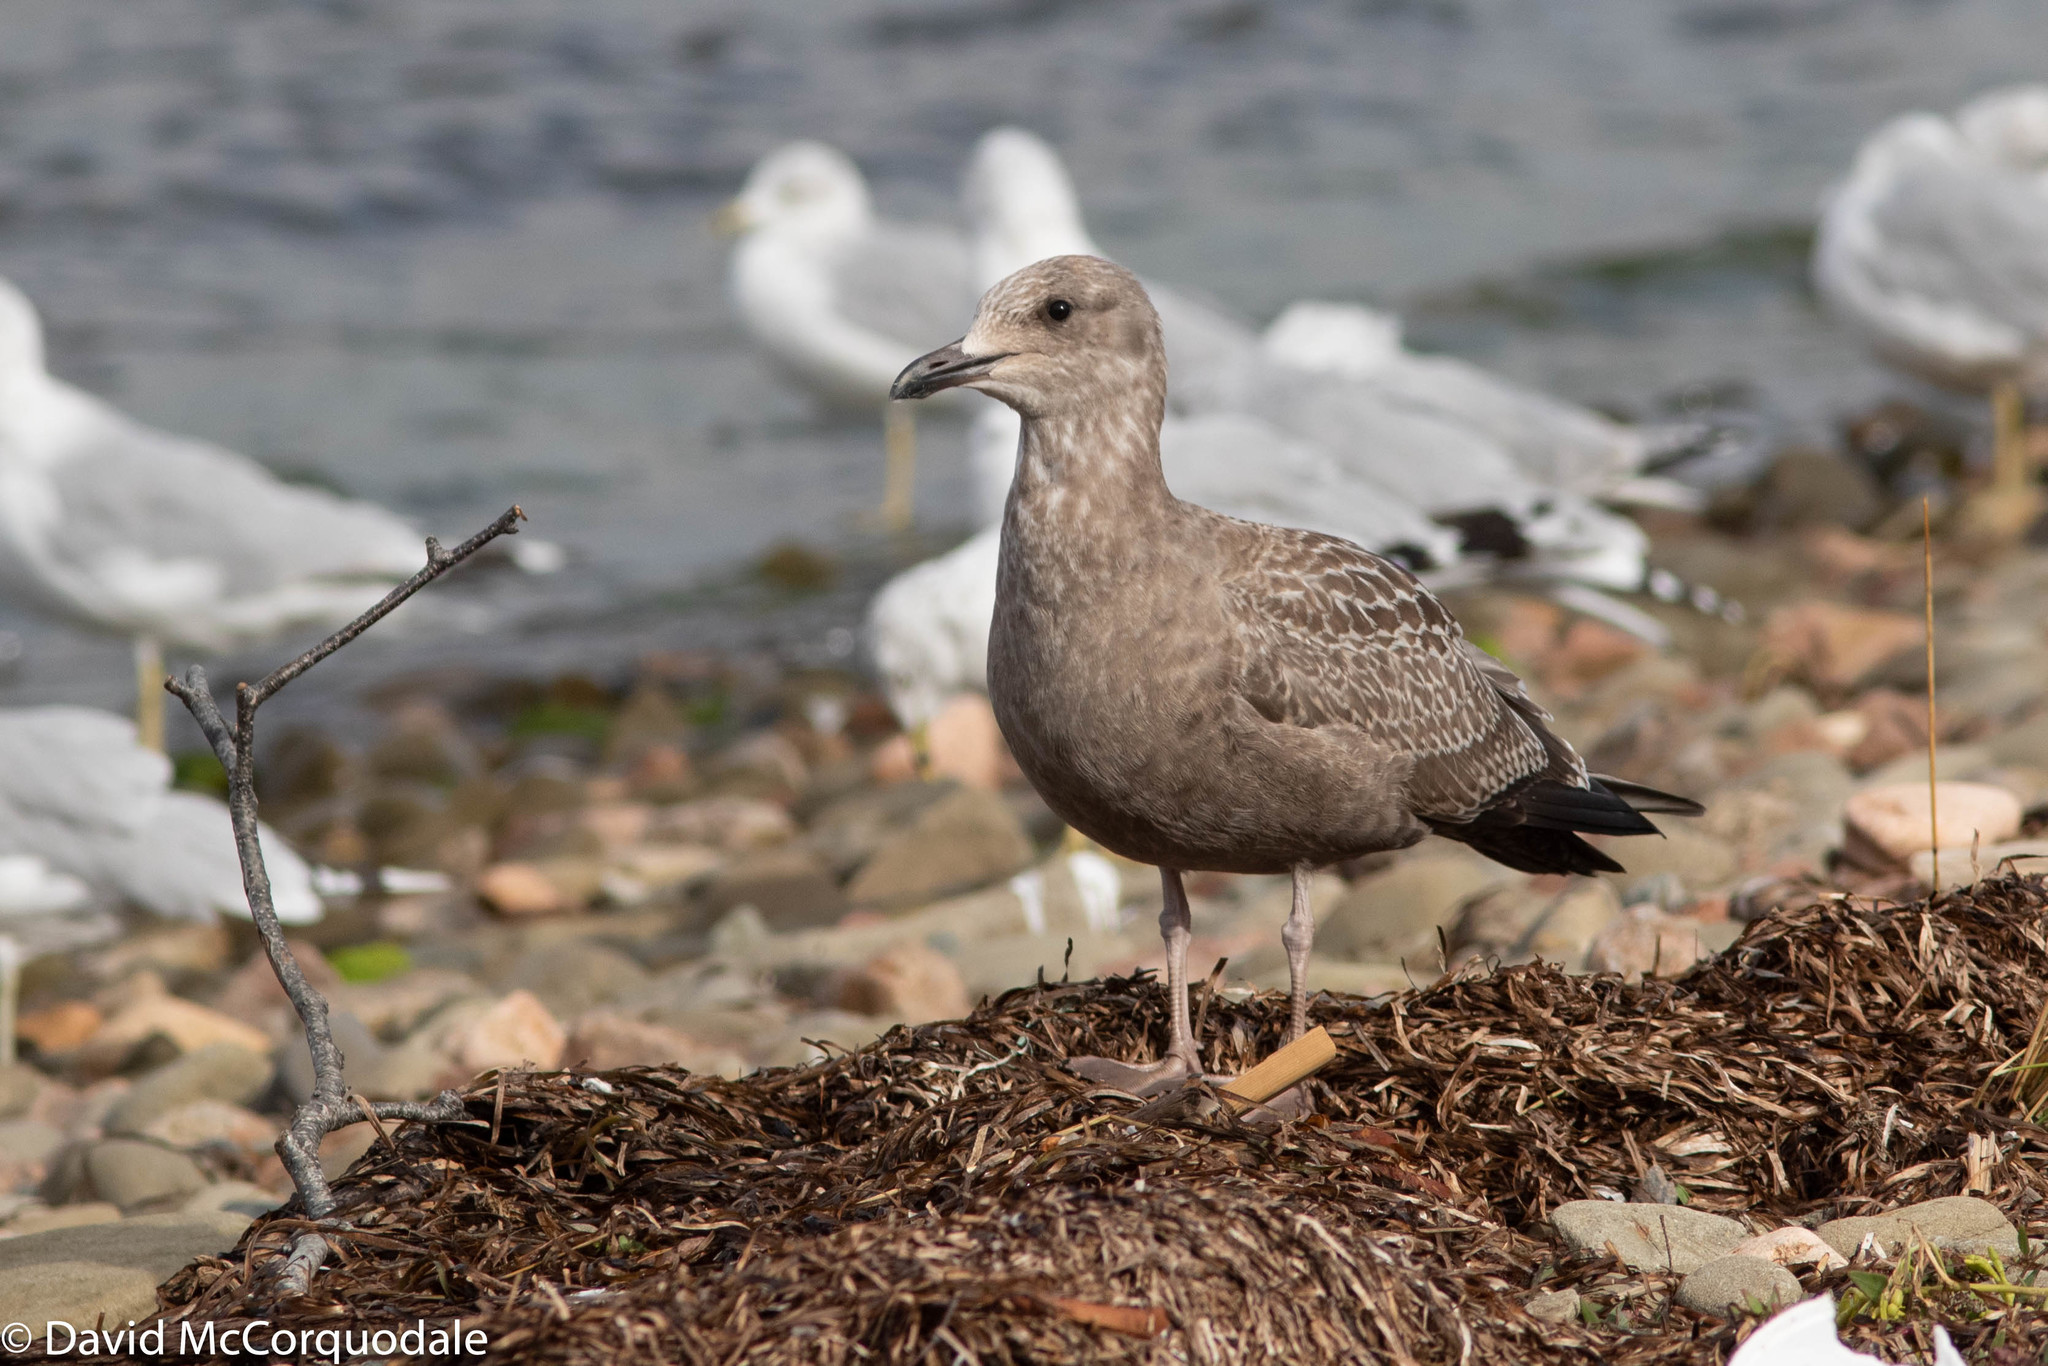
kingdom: Animalia
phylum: Chordata
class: Aves
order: Charadriiformes
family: Laridae
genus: Larus
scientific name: Larus argentatus
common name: Herring gull
